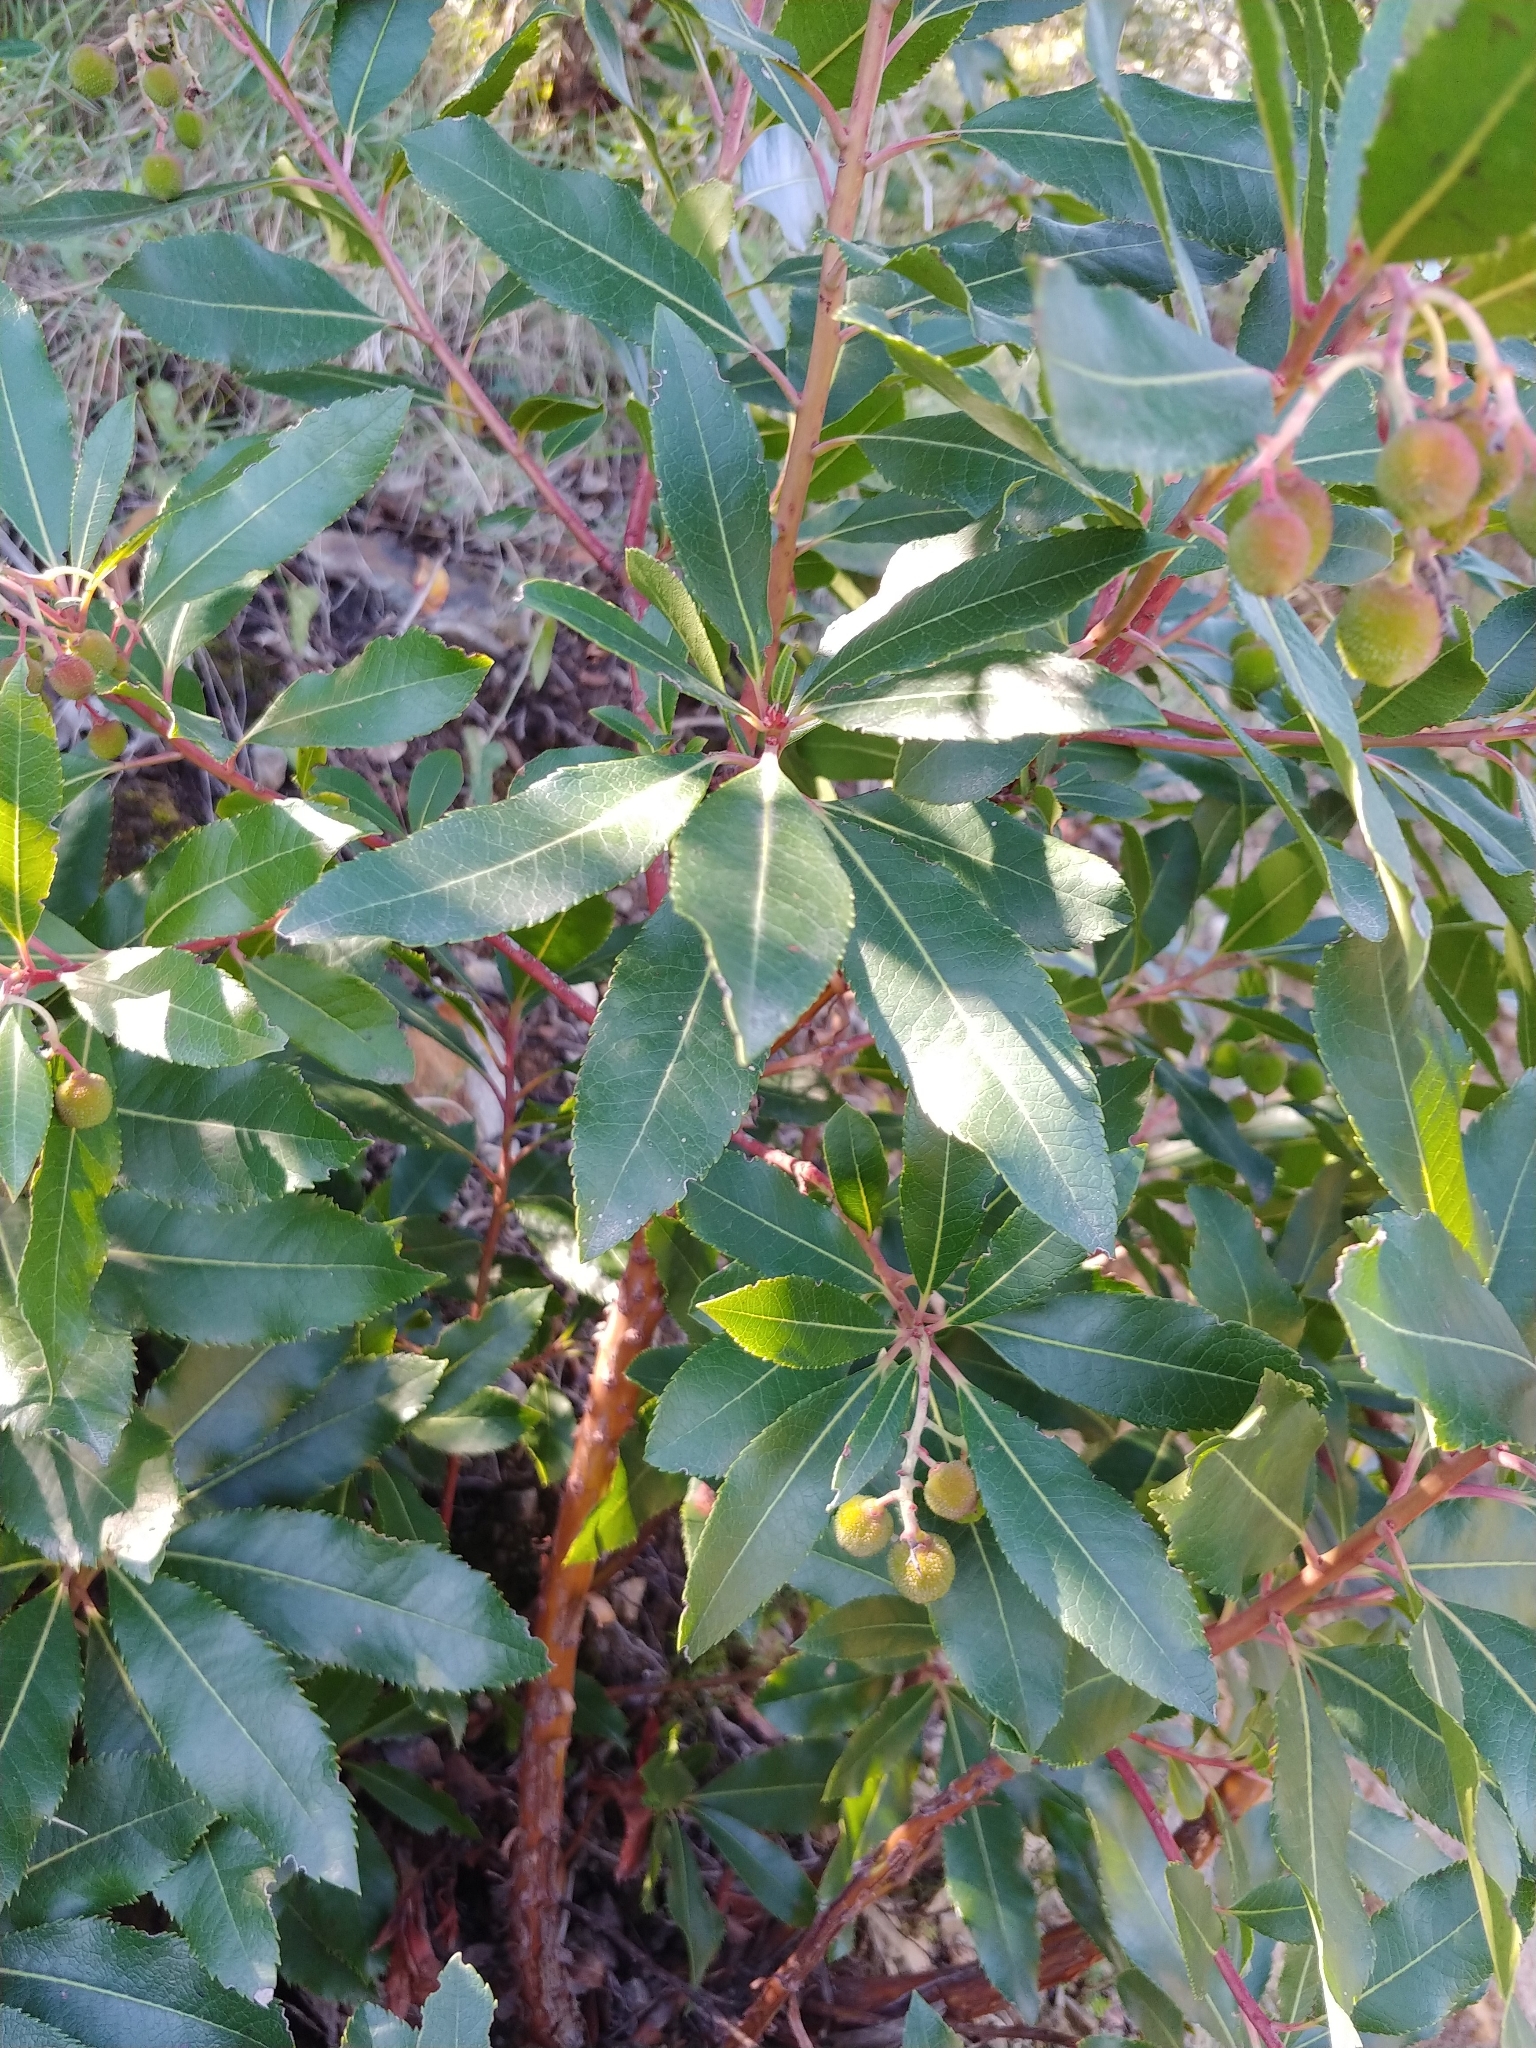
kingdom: Plantae
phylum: Tracheophyta
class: Magnoliopsida
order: Ericales
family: Ericaceae
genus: Arbutus
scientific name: Arbutus unedo
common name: Strawberry-tree
